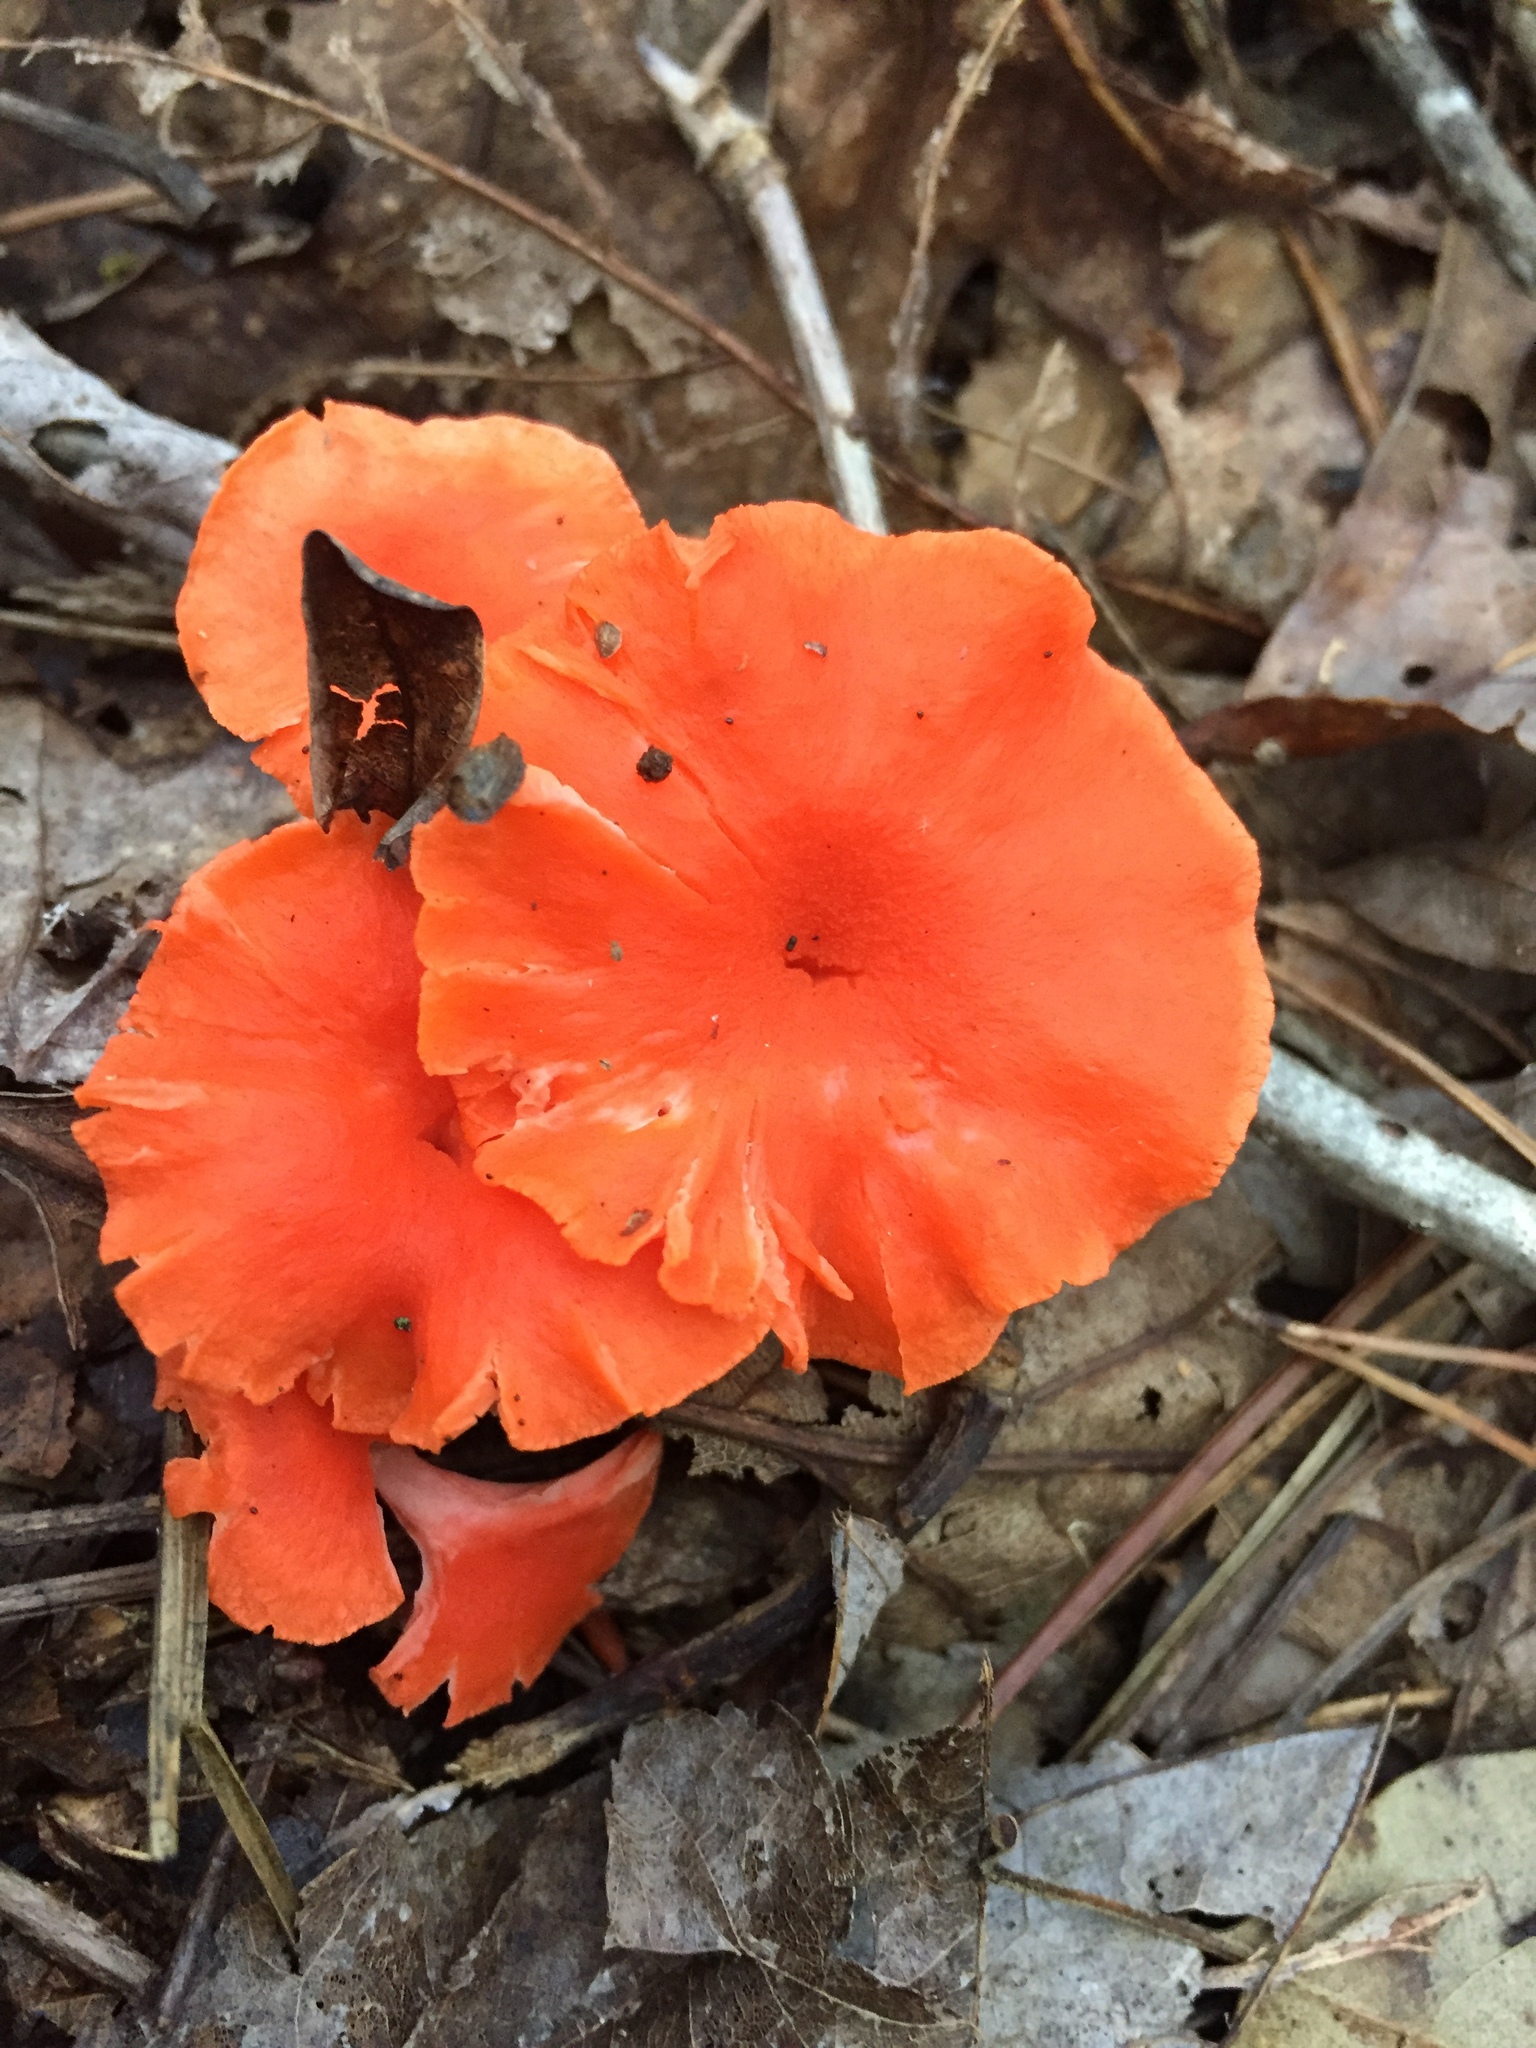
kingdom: Fungi
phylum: Basidiomycota
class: Agaricomycetes
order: Cantharellales
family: Hydnaceae
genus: Cantharellus
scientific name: Cantharellus cinnabarinus
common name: Cinnabar chanterelle
